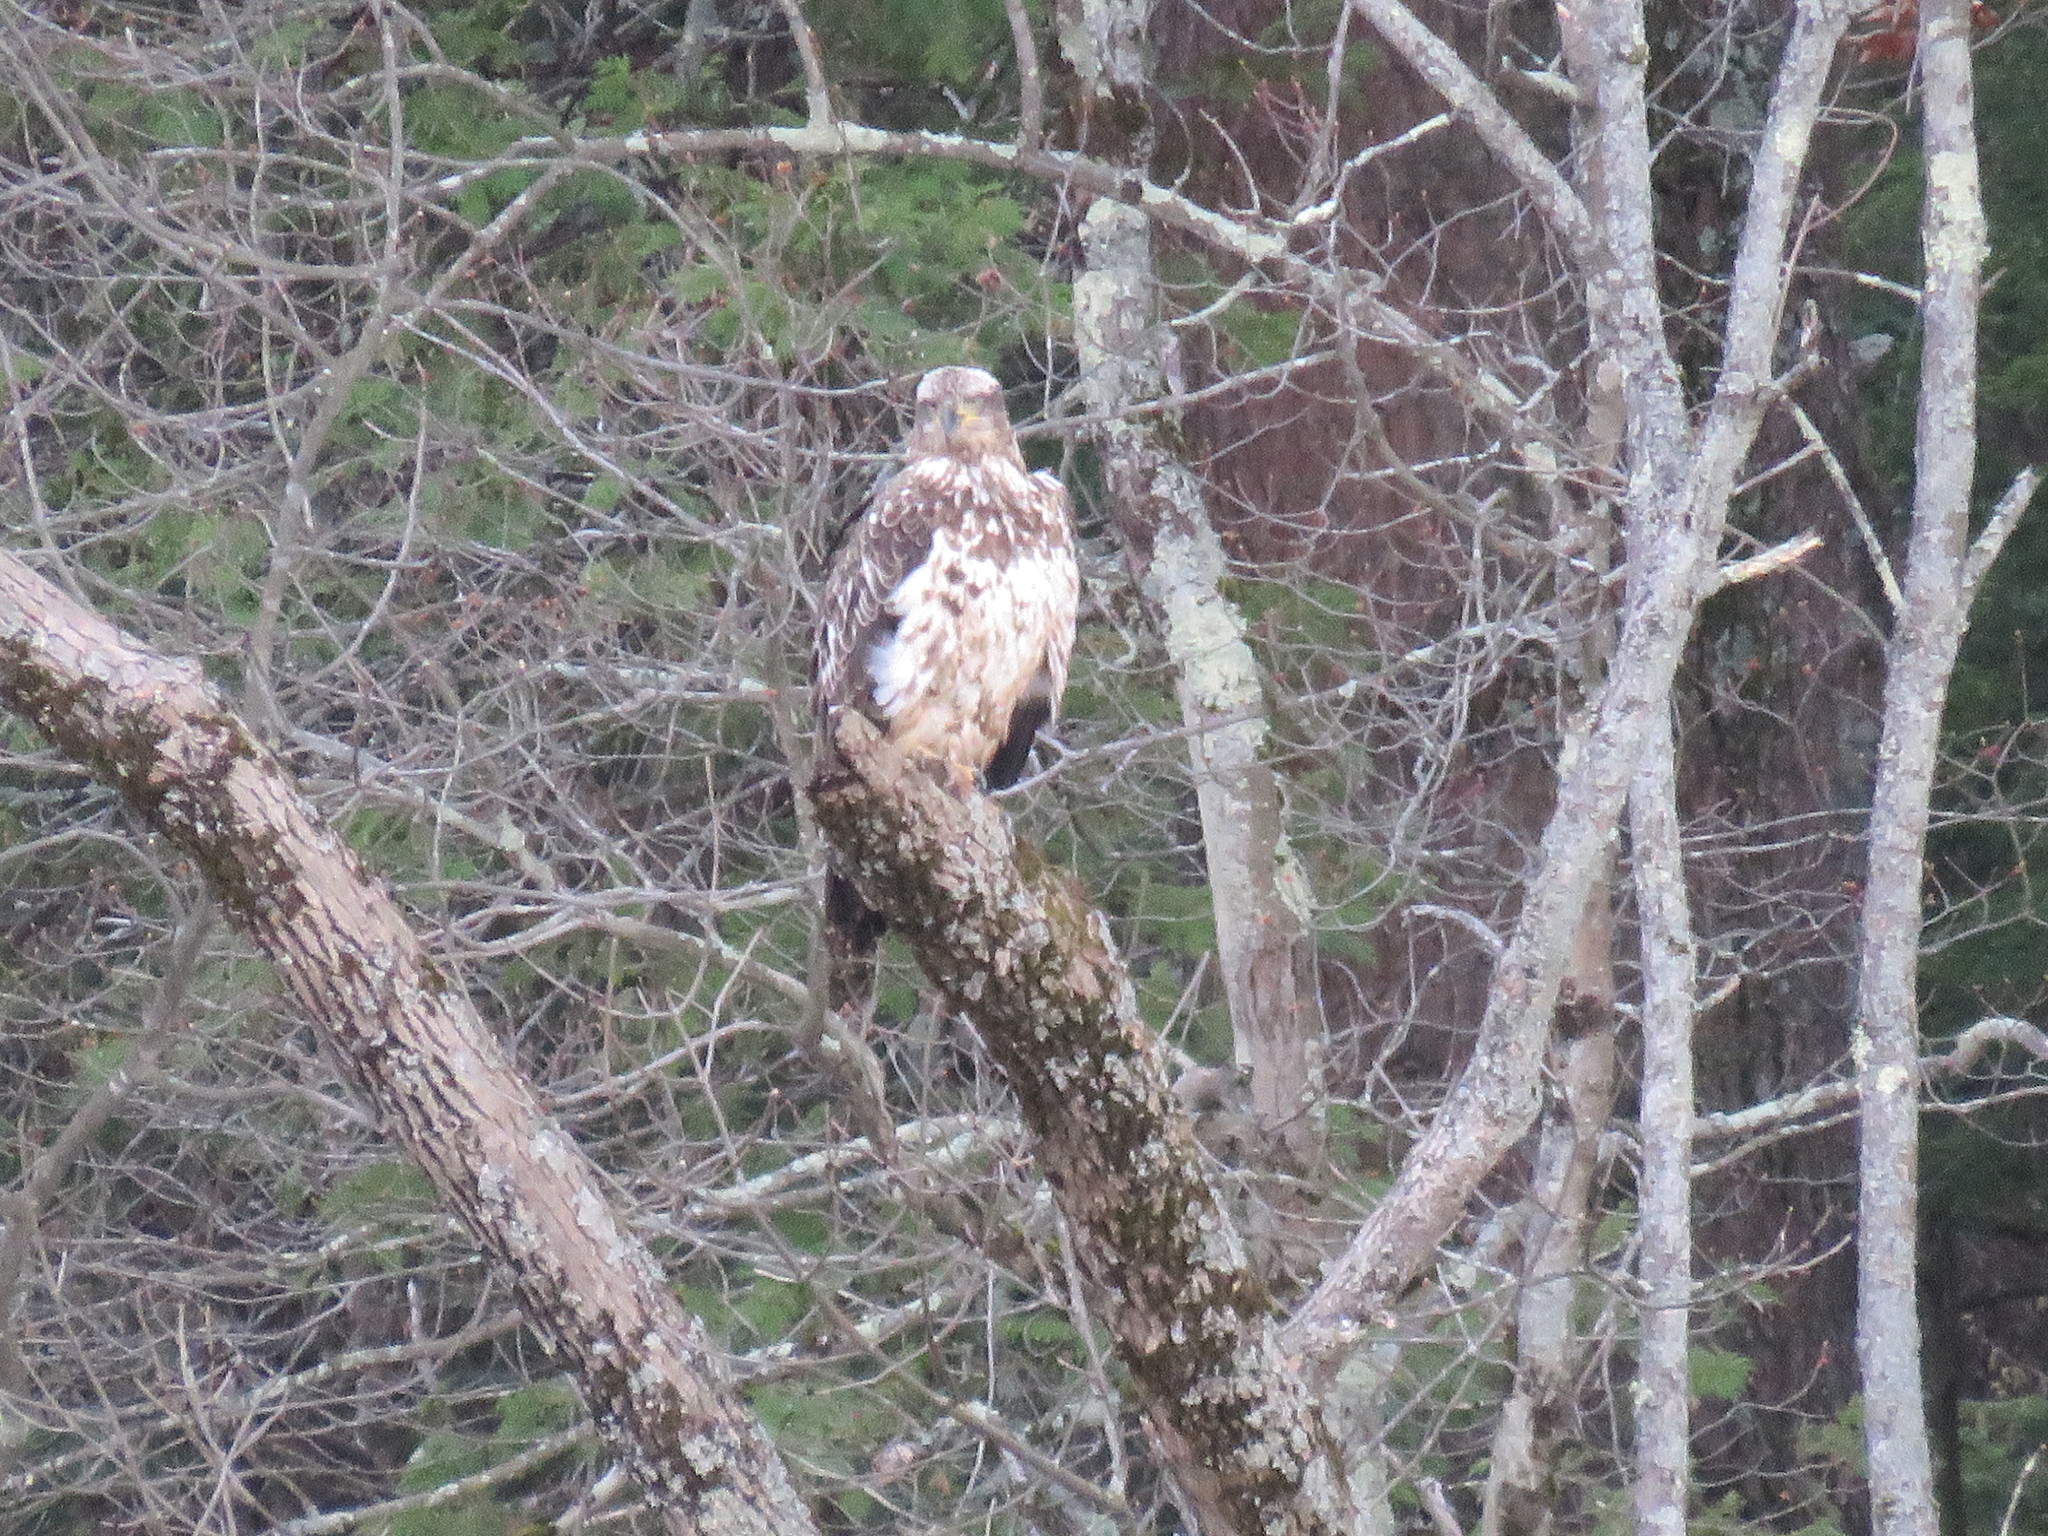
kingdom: Animalia
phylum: Chordata
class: Aves
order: Accipitriformes
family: Accipitridae
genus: Haliaeetus
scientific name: Haliaeetus leucocephalus
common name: Bald eagle
